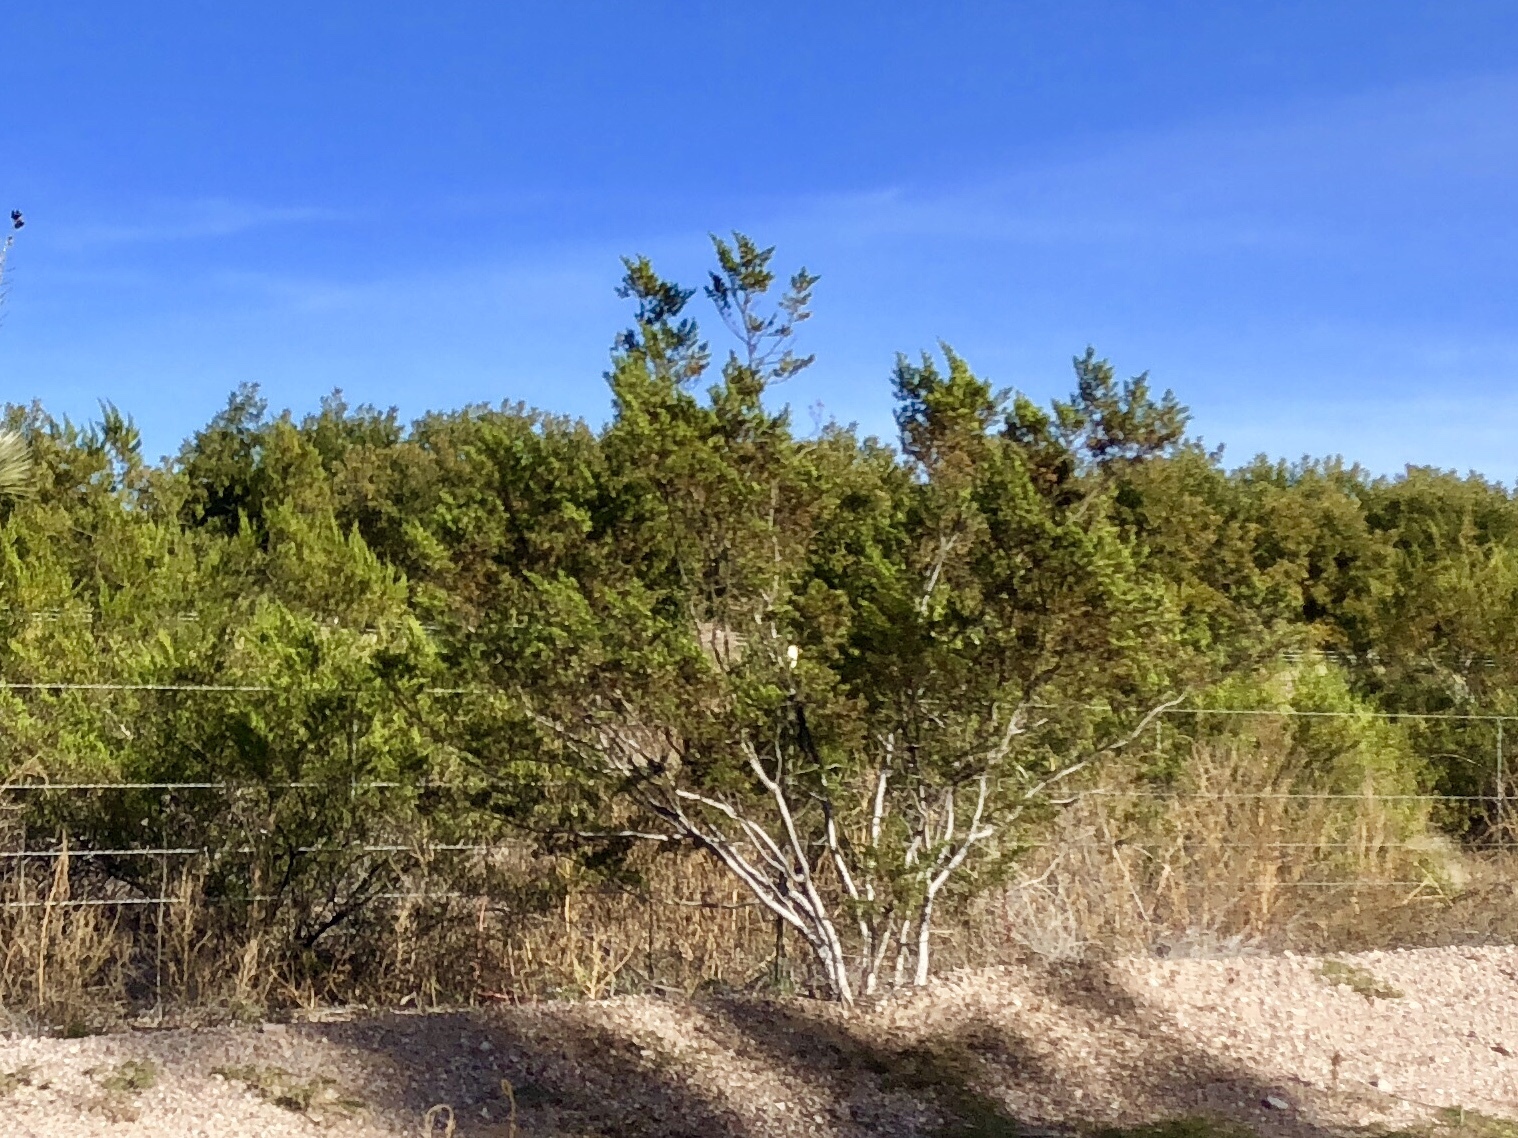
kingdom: Plantae
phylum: Tracheophyta
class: Magnoliopsida
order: Zygophyllales
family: Zygophyllaceae
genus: Larrea
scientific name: Larrea tridentata
